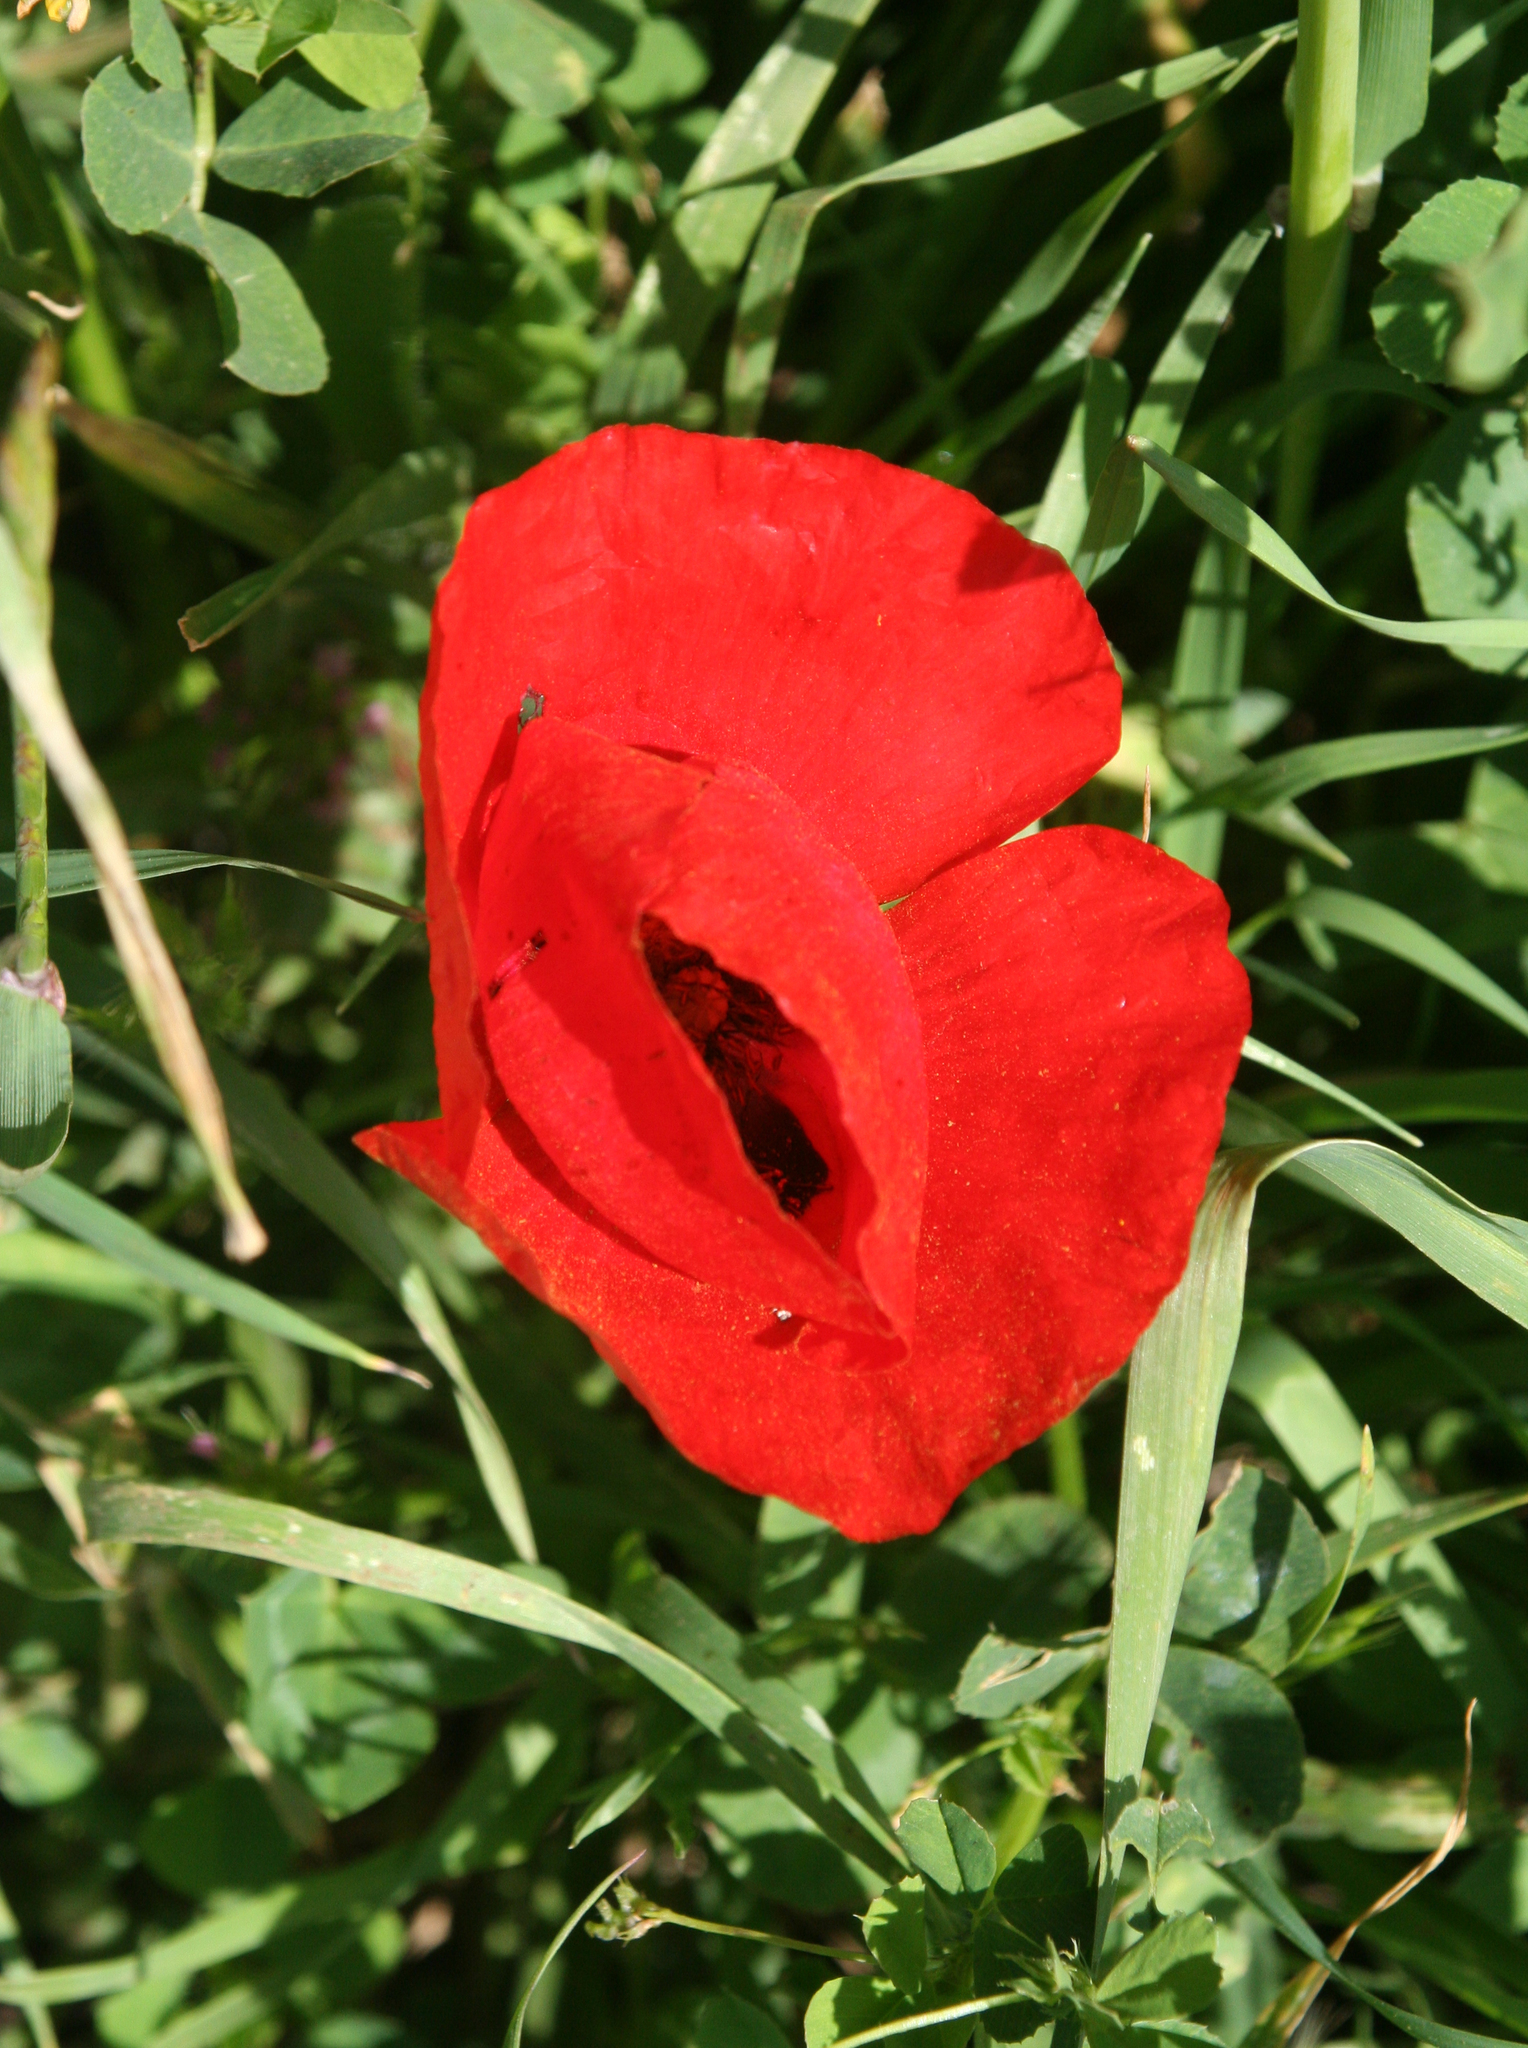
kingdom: Plantae
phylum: Tracheophyta
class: Magnoliopsida
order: Ranunculales
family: Papaveraceae
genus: Papaver
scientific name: Papaver umbonatum
